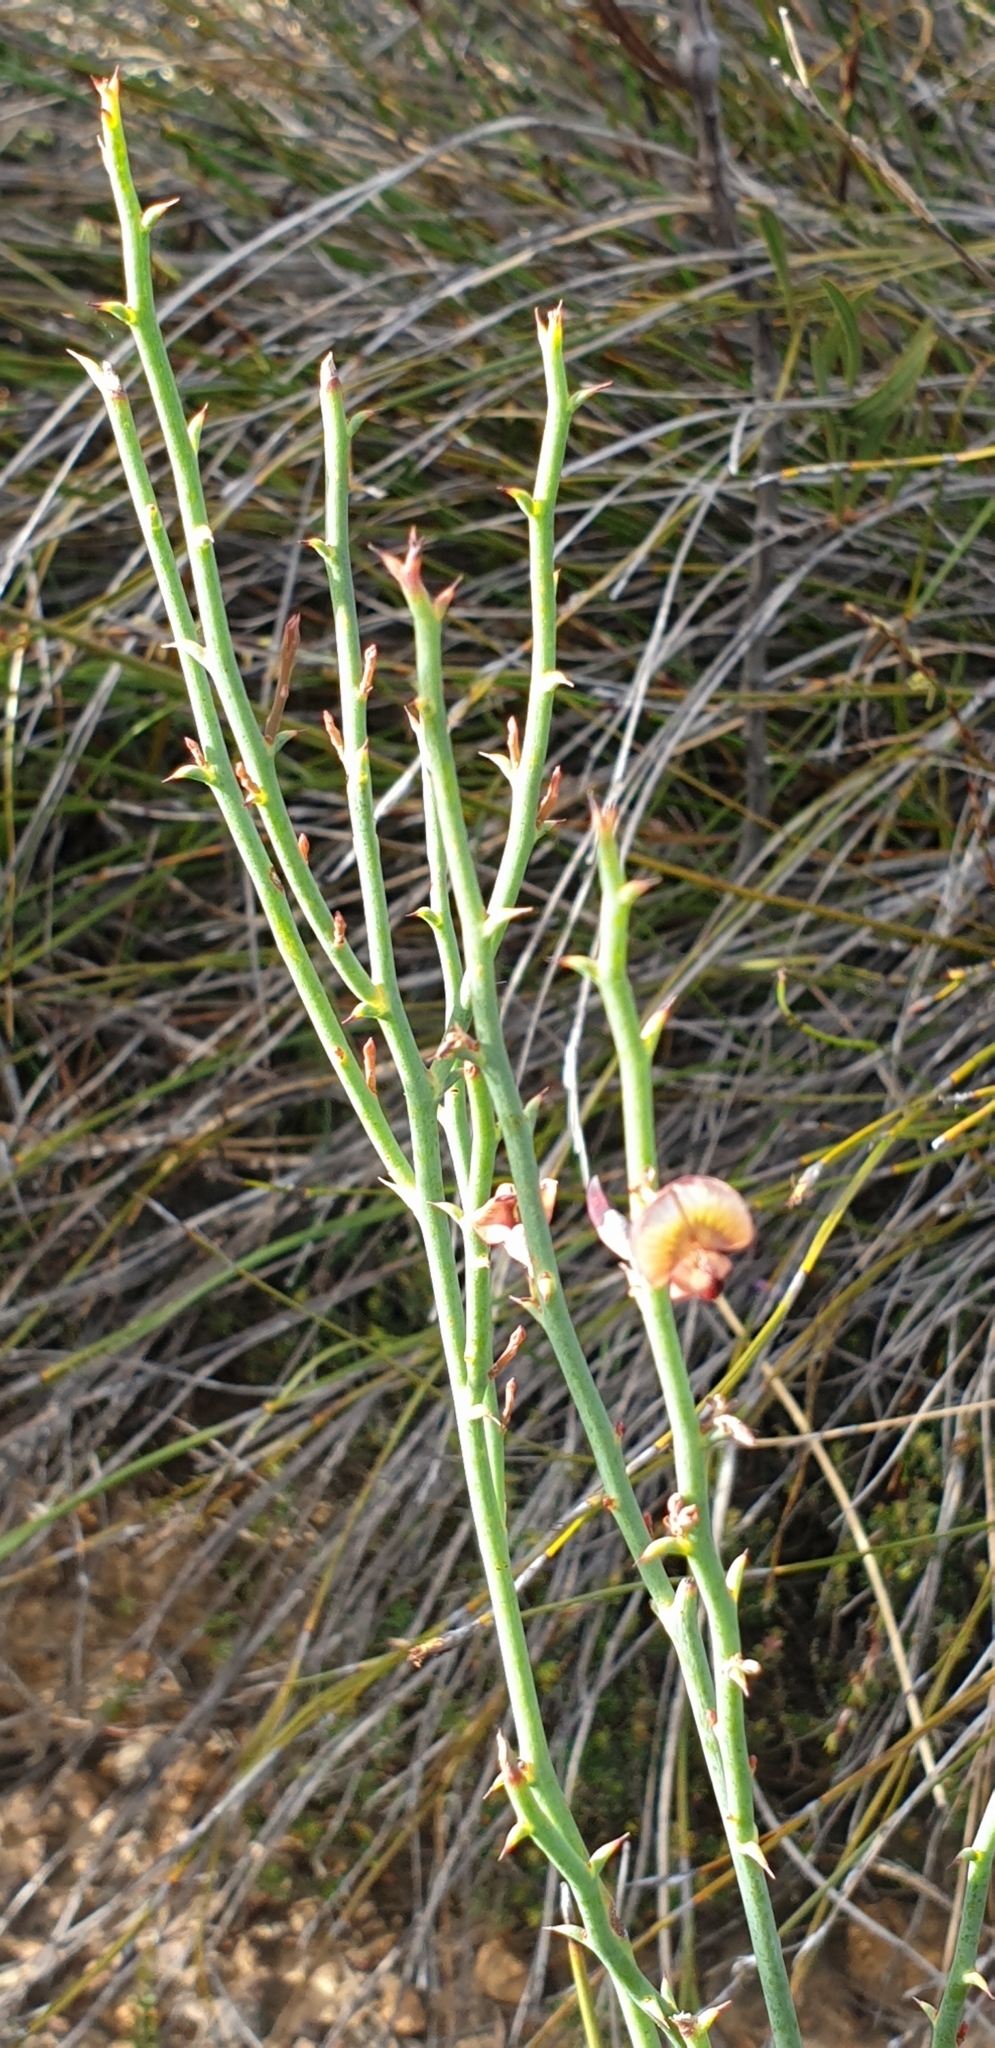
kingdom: Plantae
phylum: Tracheophyta
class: Magnoliopsida
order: Fabales
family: Fabaceae
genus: Daviesia
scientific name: Daviesia brevifolia
